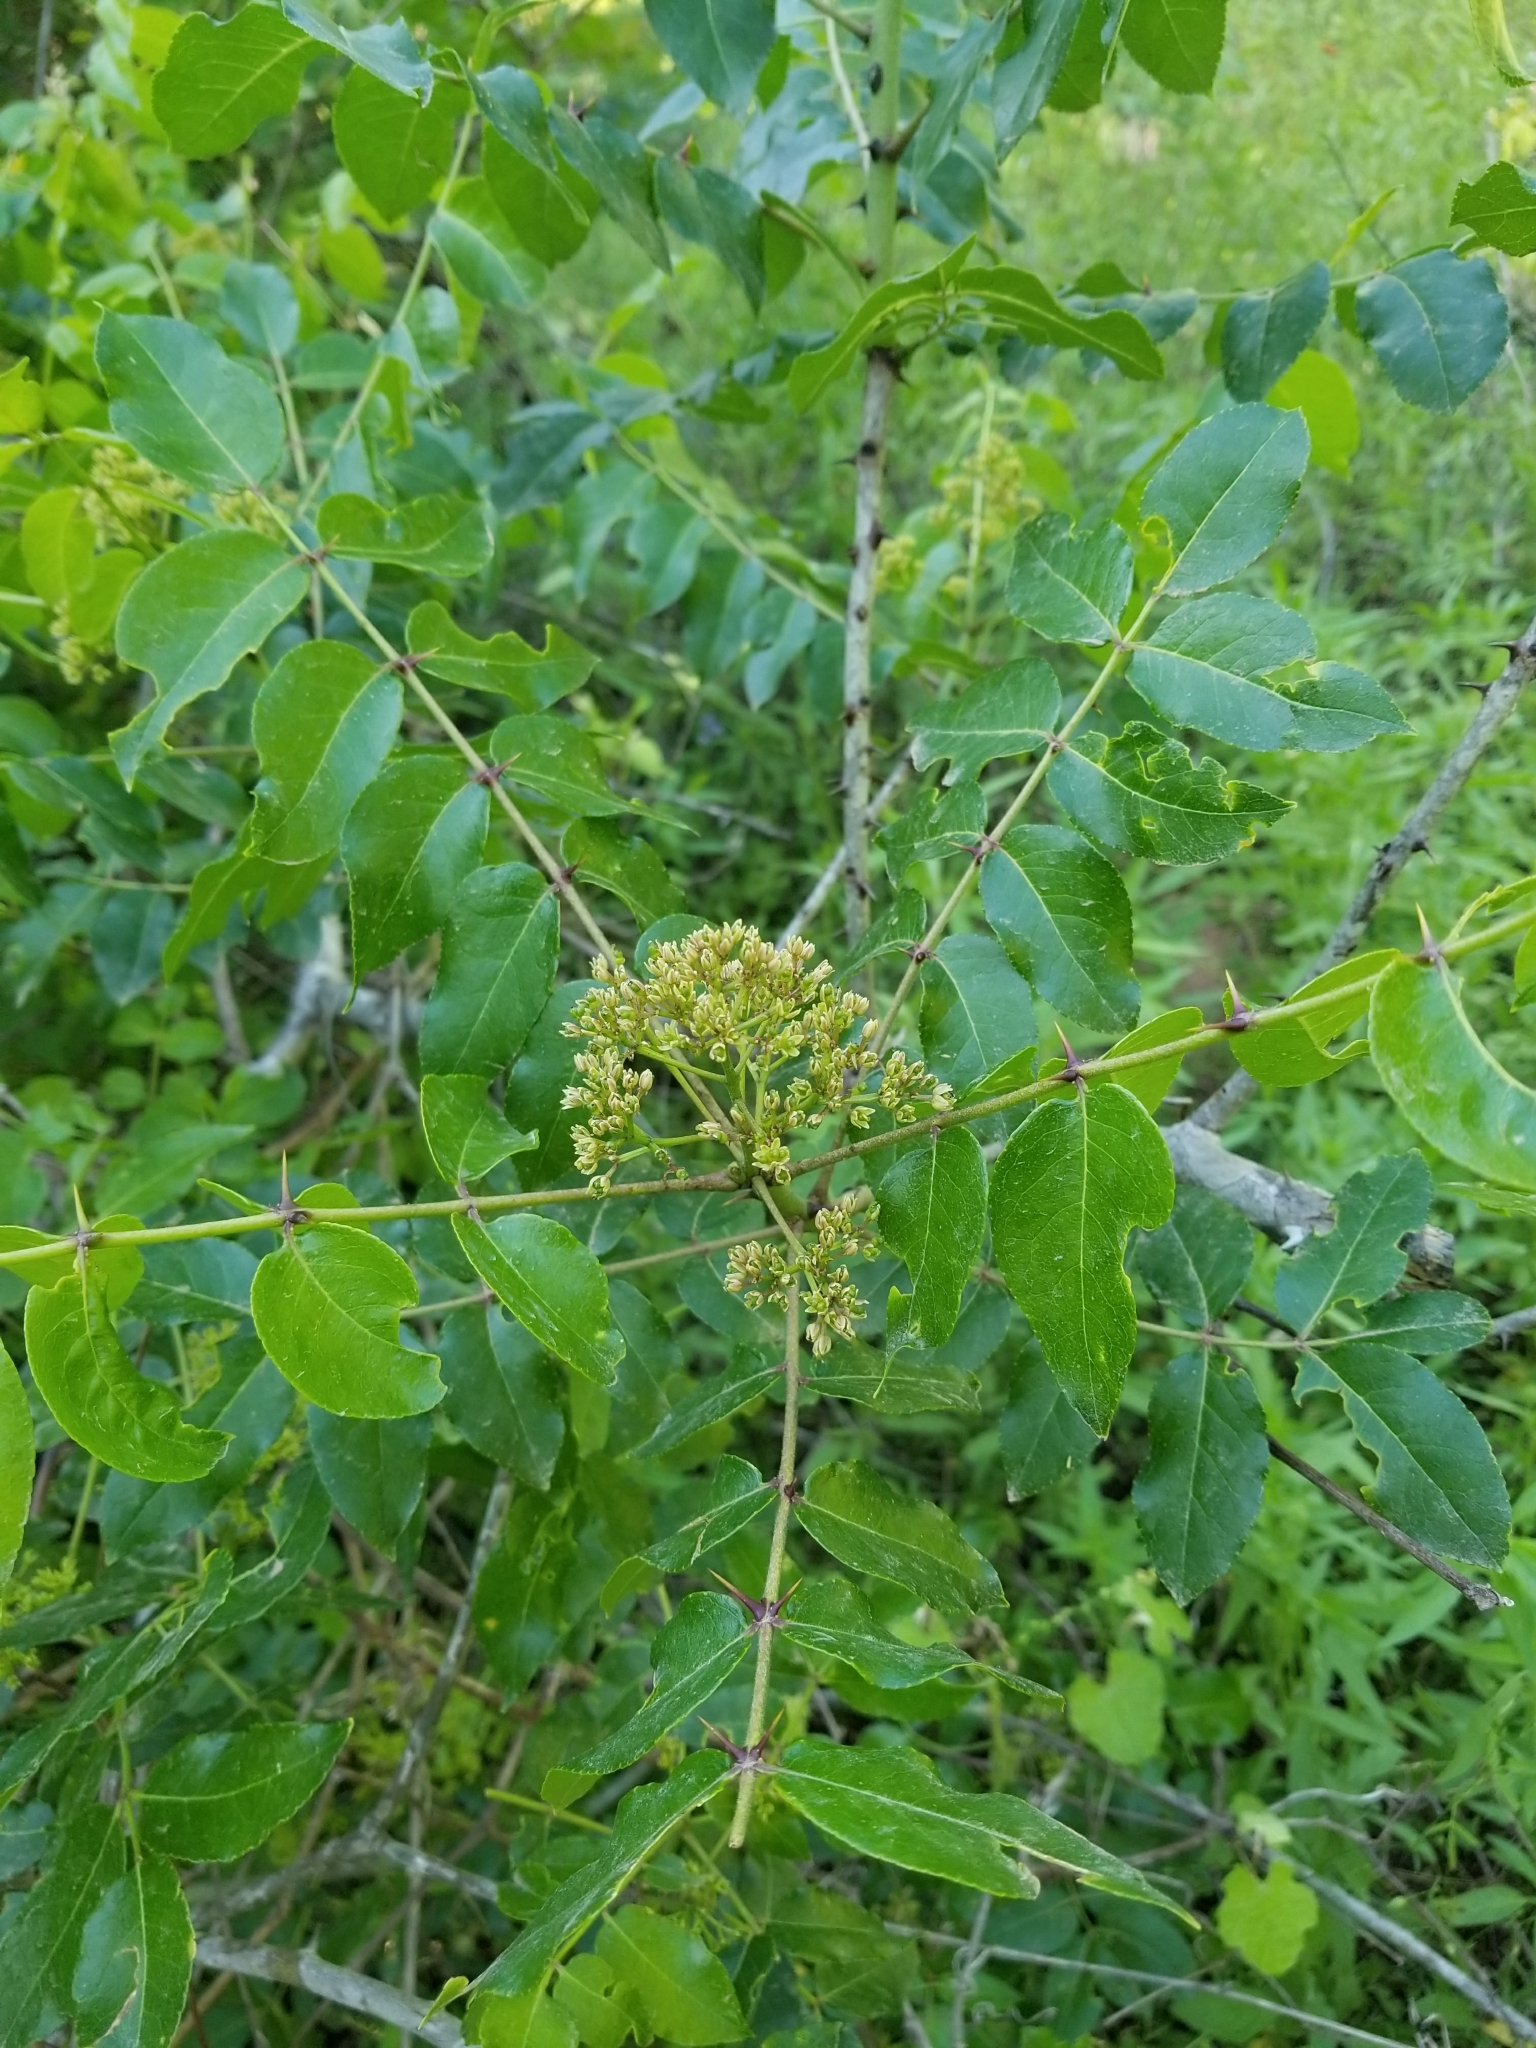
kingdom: Plantae
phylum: Tracheophyta
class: Magnoliopsida
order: Sapindales
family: Rutaceae
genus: Zanthoxylum
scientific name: Zanthoxylum clava-herculis
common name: Hercules'-club
